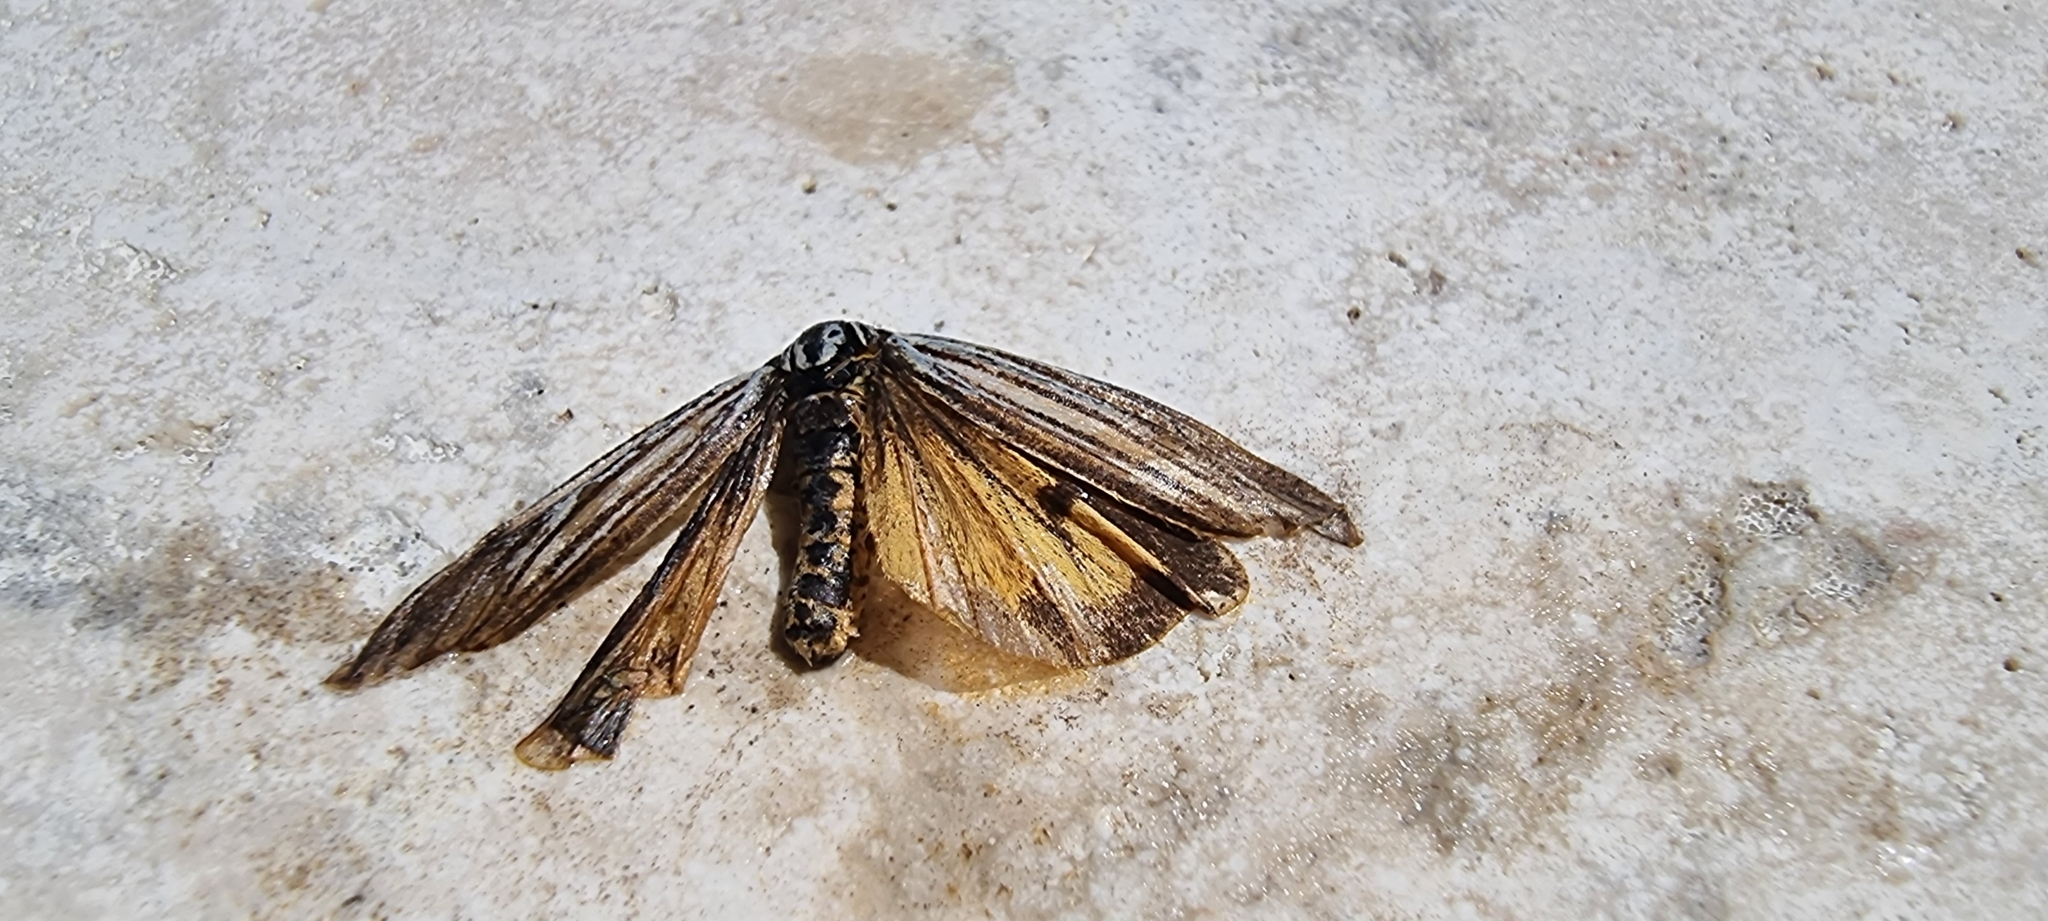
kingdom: Animalia
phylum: Arthropoda
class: Insecta
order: Lepidoptera
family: Erebidae
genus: Coscinia
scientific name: Coscinia Spiris striata
